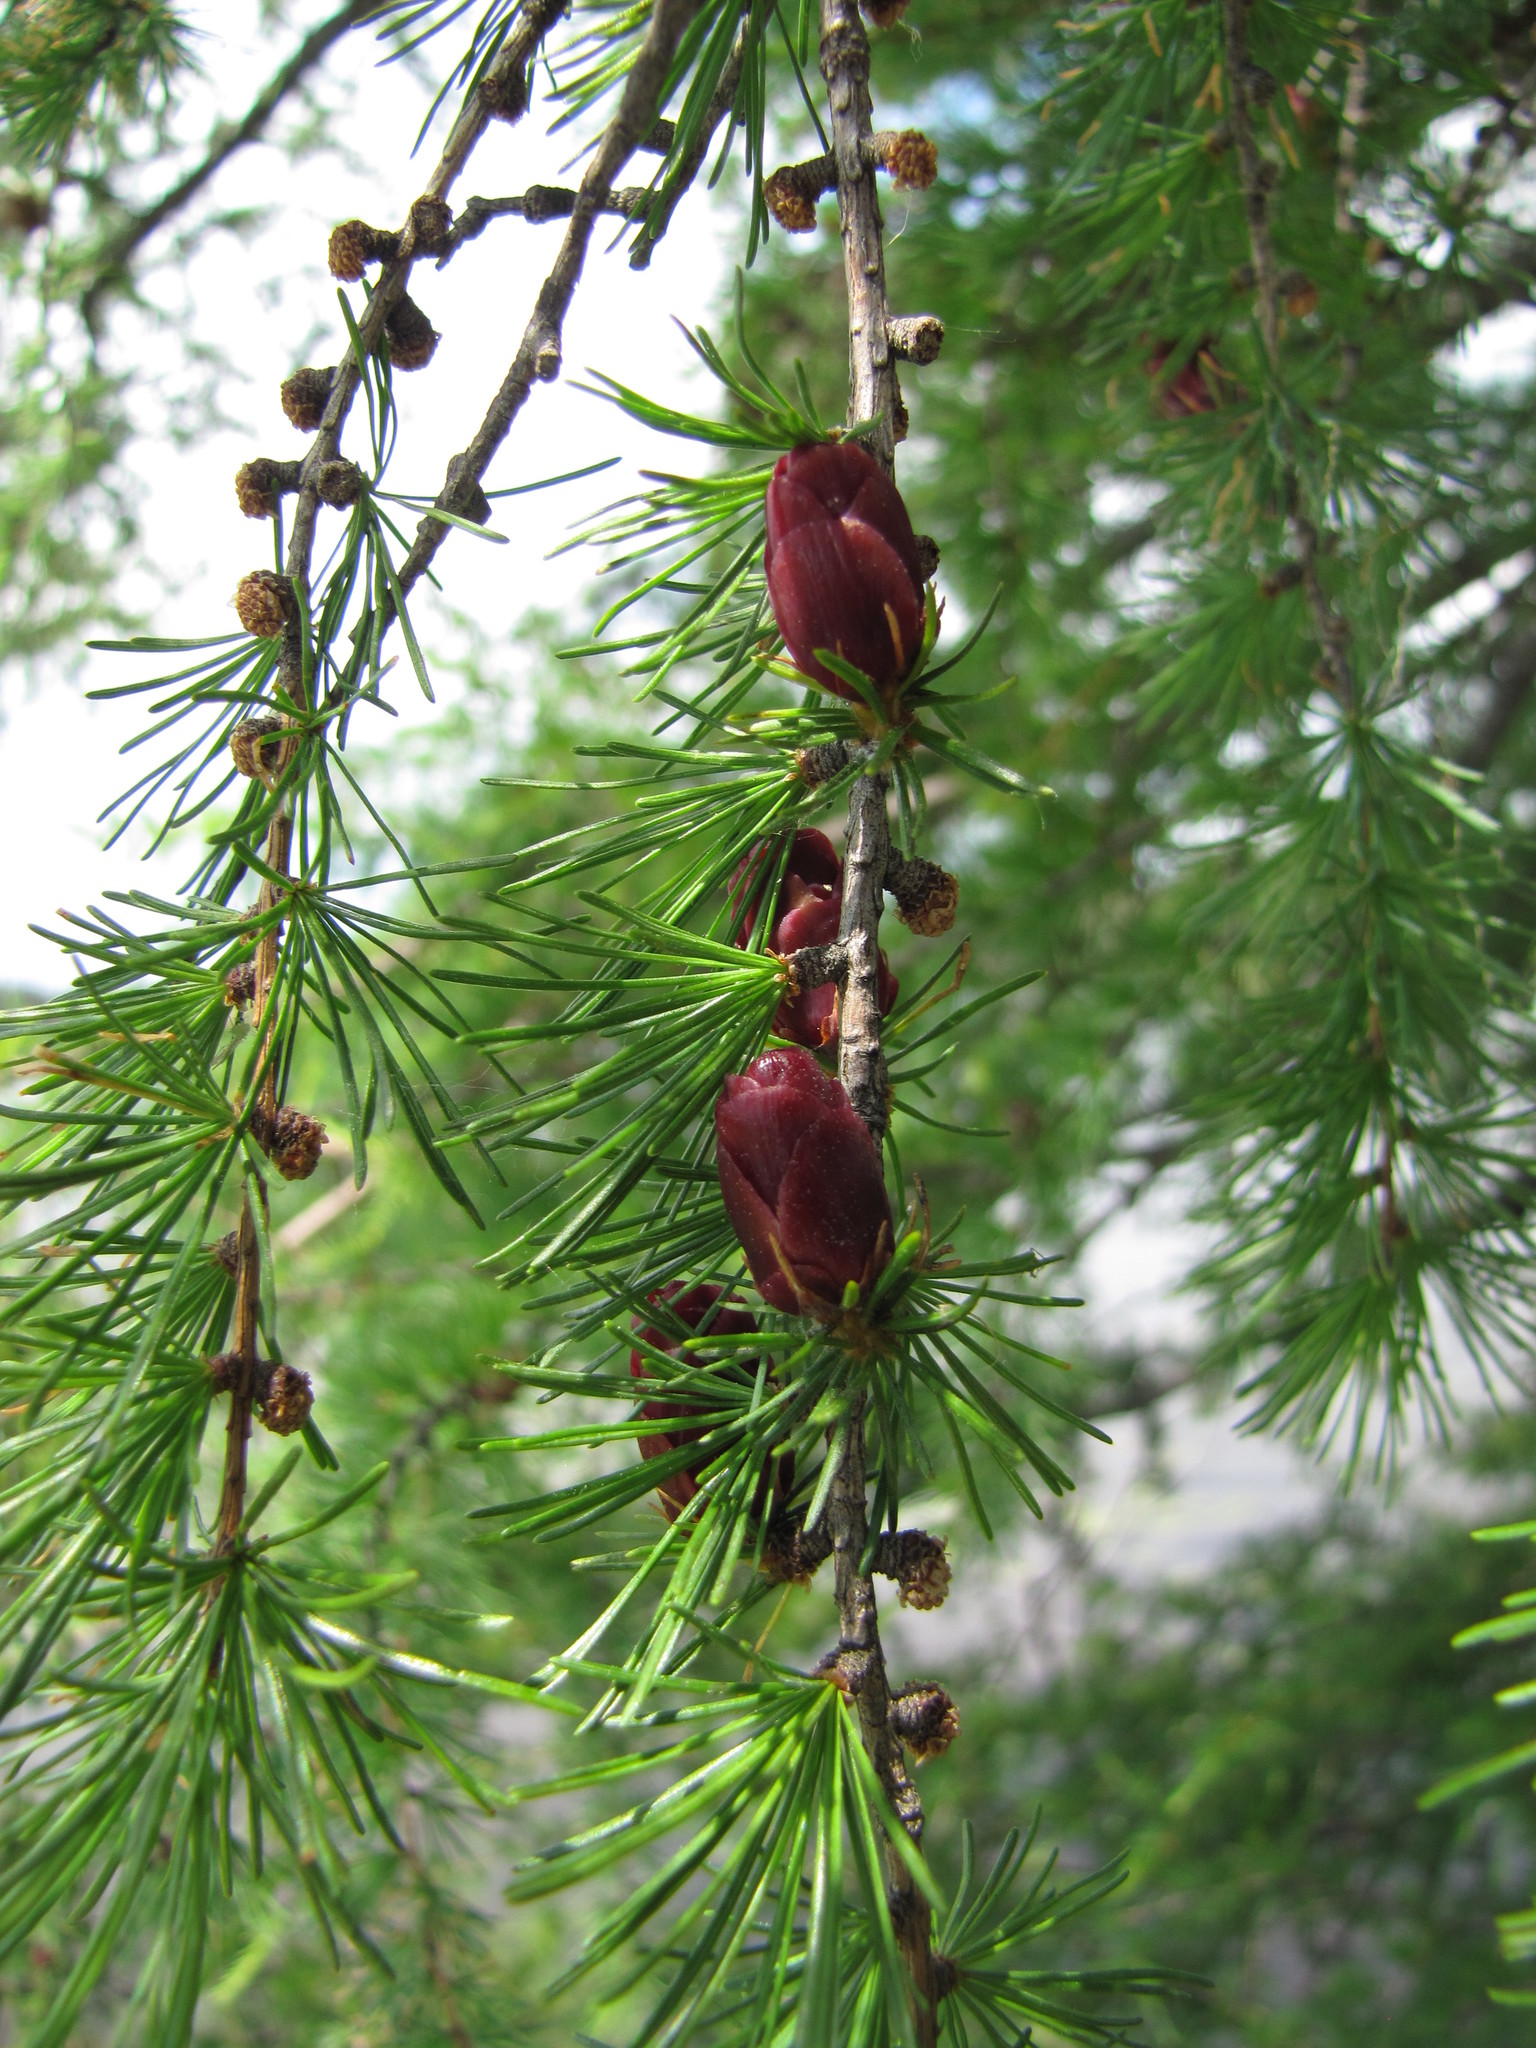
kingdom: Plantae
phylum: Tracheophyta
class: Pinopsida
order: Pinales
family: Pinaceae
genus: Larix
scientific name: Larix laricina
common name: American larch
